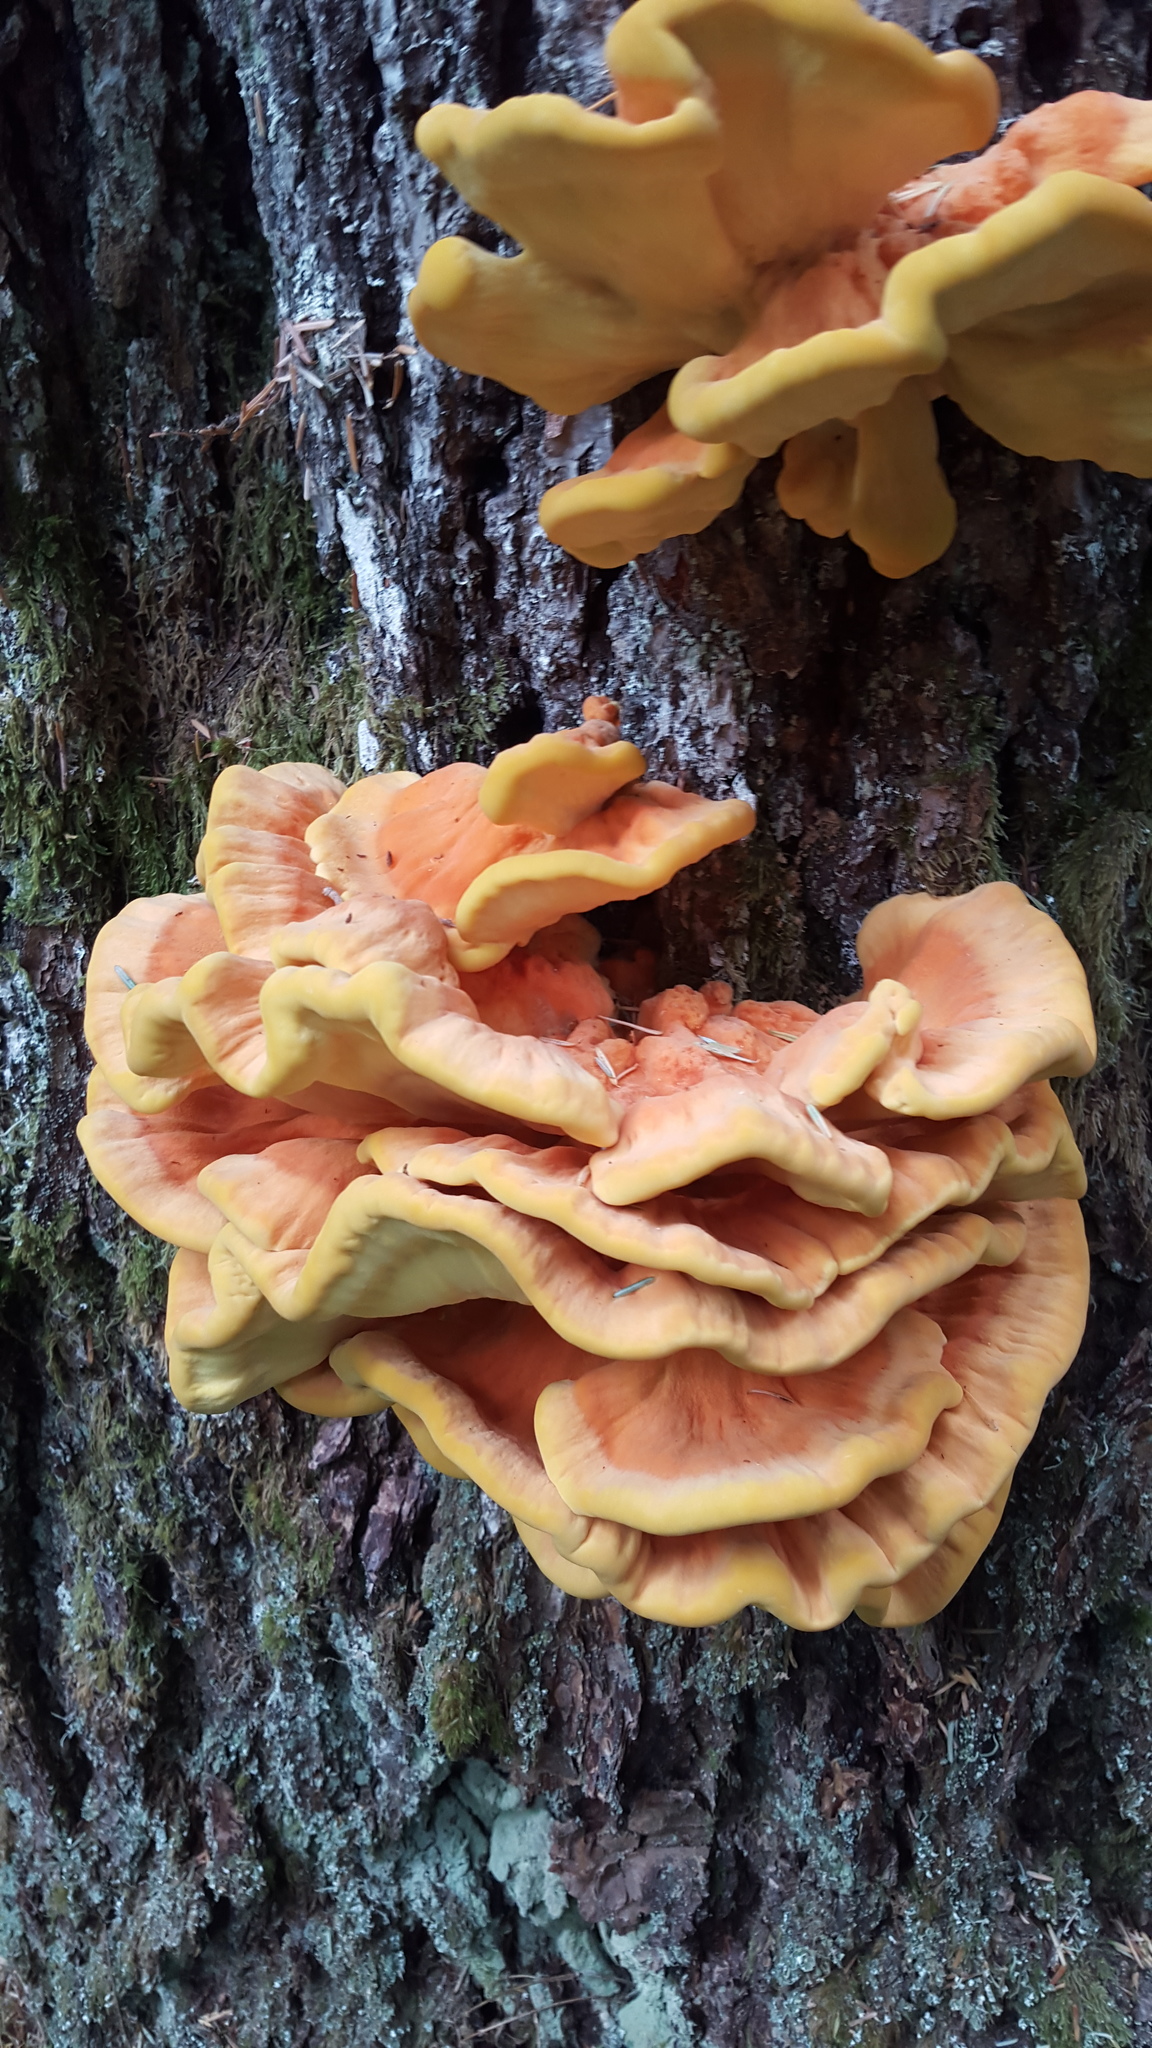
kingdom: Fungi
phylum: Basidiomycota
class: Agaricomycetes
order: Polyporales
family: Laetiporaceae
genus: Laetiporus
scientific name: Laetiporus conifericola
